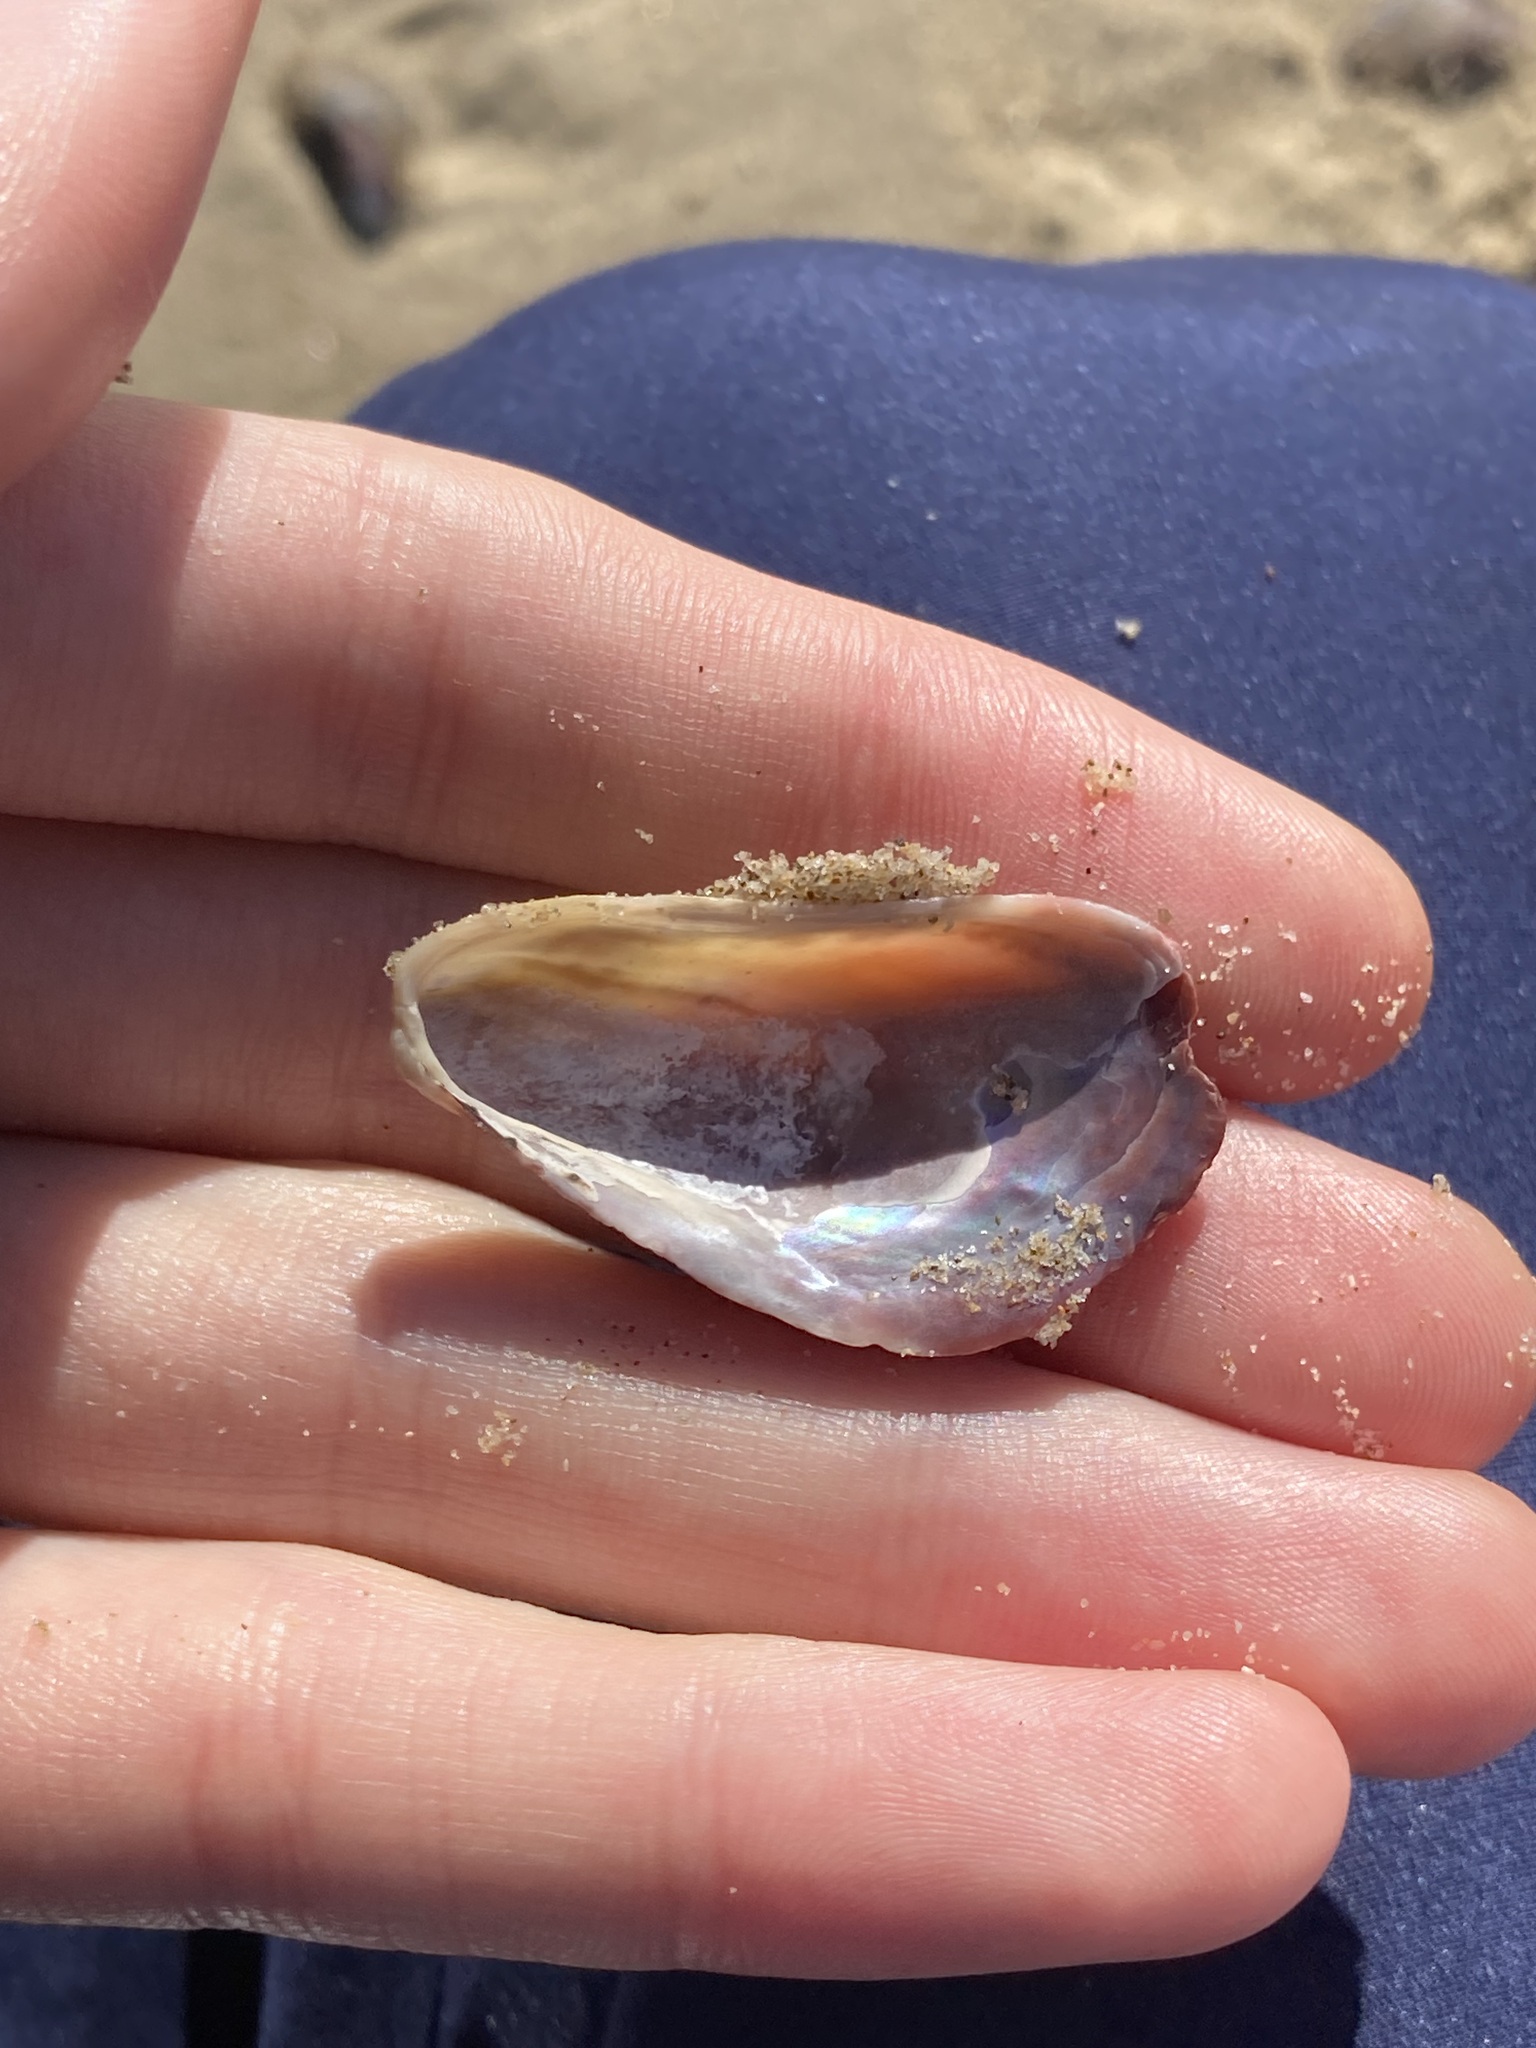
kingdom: Animalia
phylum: Mollusca
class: Bivalvia
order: Mytilida
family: Mytilidae
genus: Modiolus
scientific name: Modiolus areolatus
